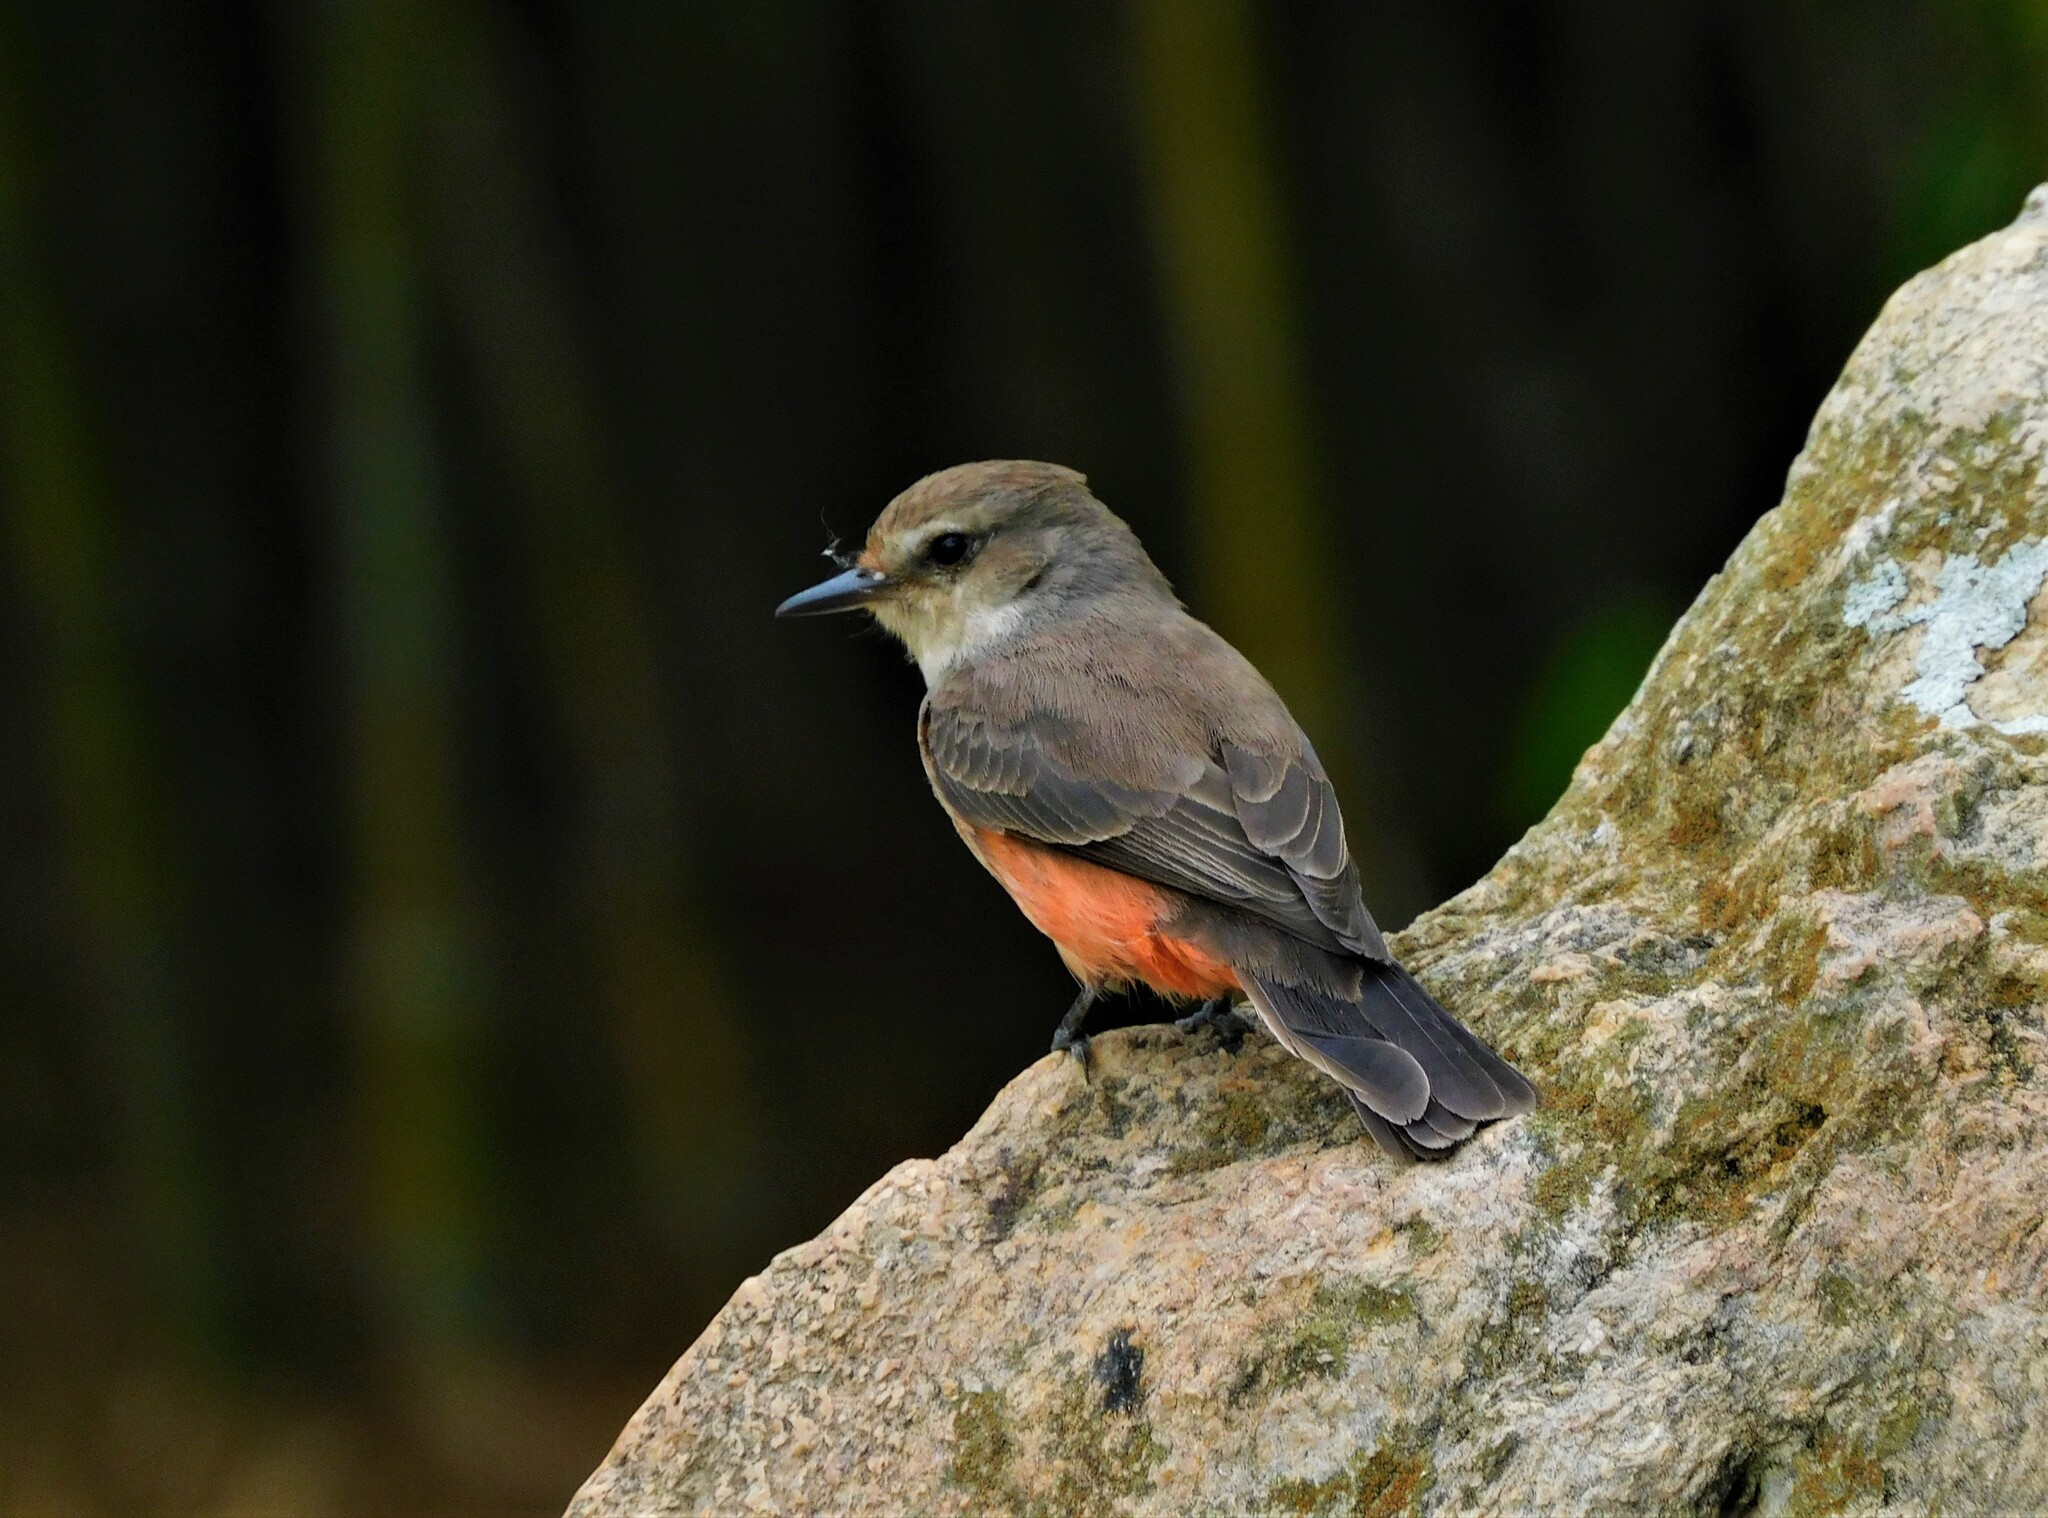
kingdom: Animalia
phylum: Chordata
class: Aves
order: Passeriformes
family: Tyrannidae
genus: Pyrocephalus
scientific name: Pyrocephalus rubinus
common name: Vermilion flycatcher
